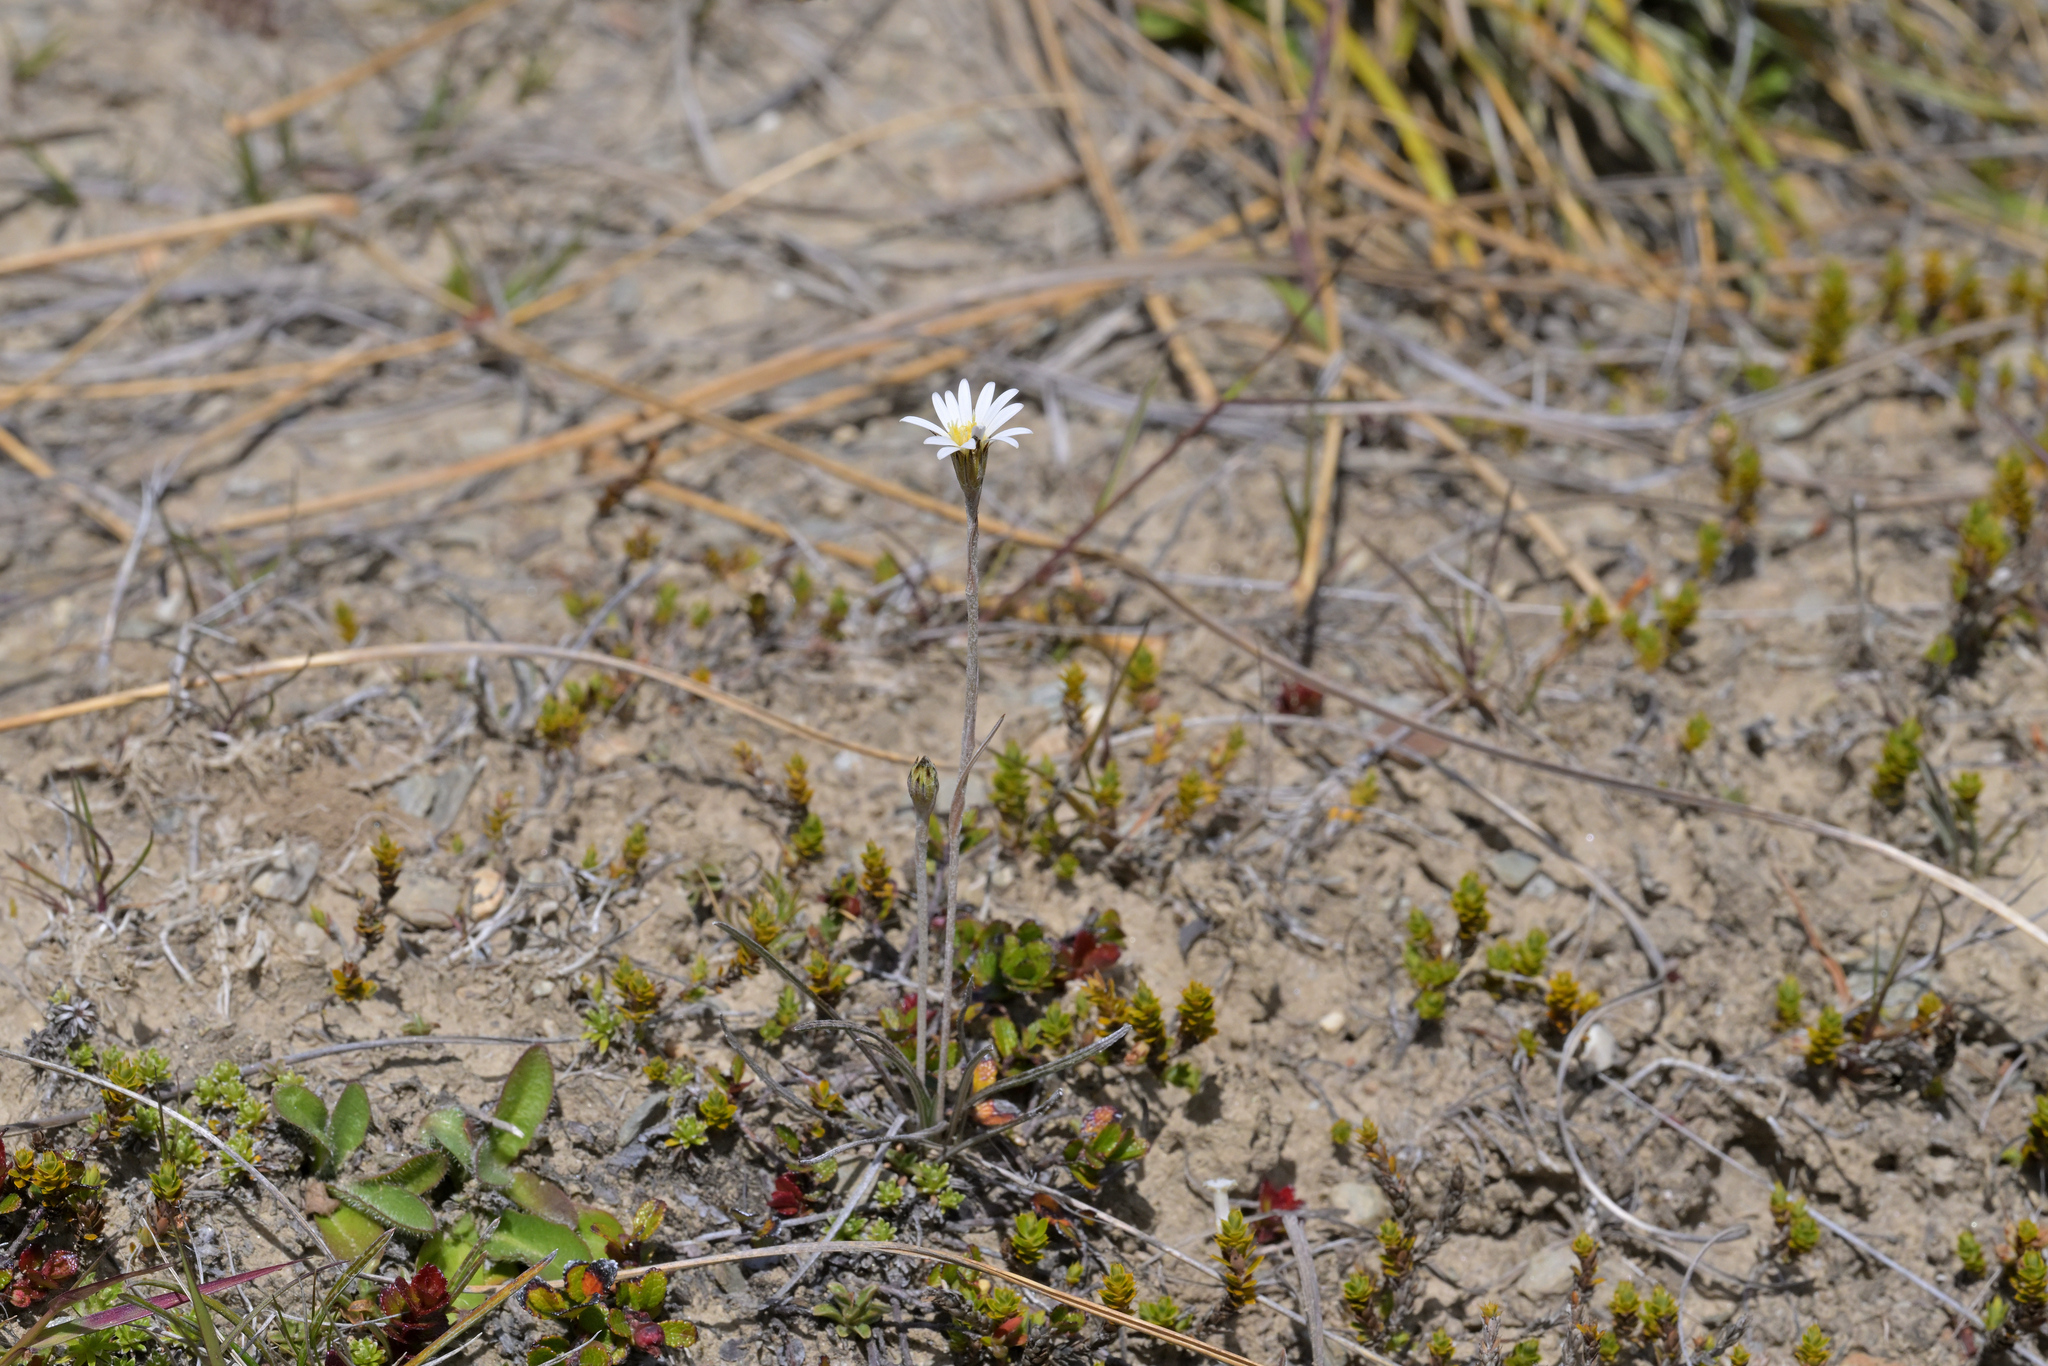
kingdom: Plantae
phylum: Tracheophyta
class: Magnoliopsida
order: Asterales
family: Asteraceae
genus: Celmisia
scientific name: Celmisia gracilenta
